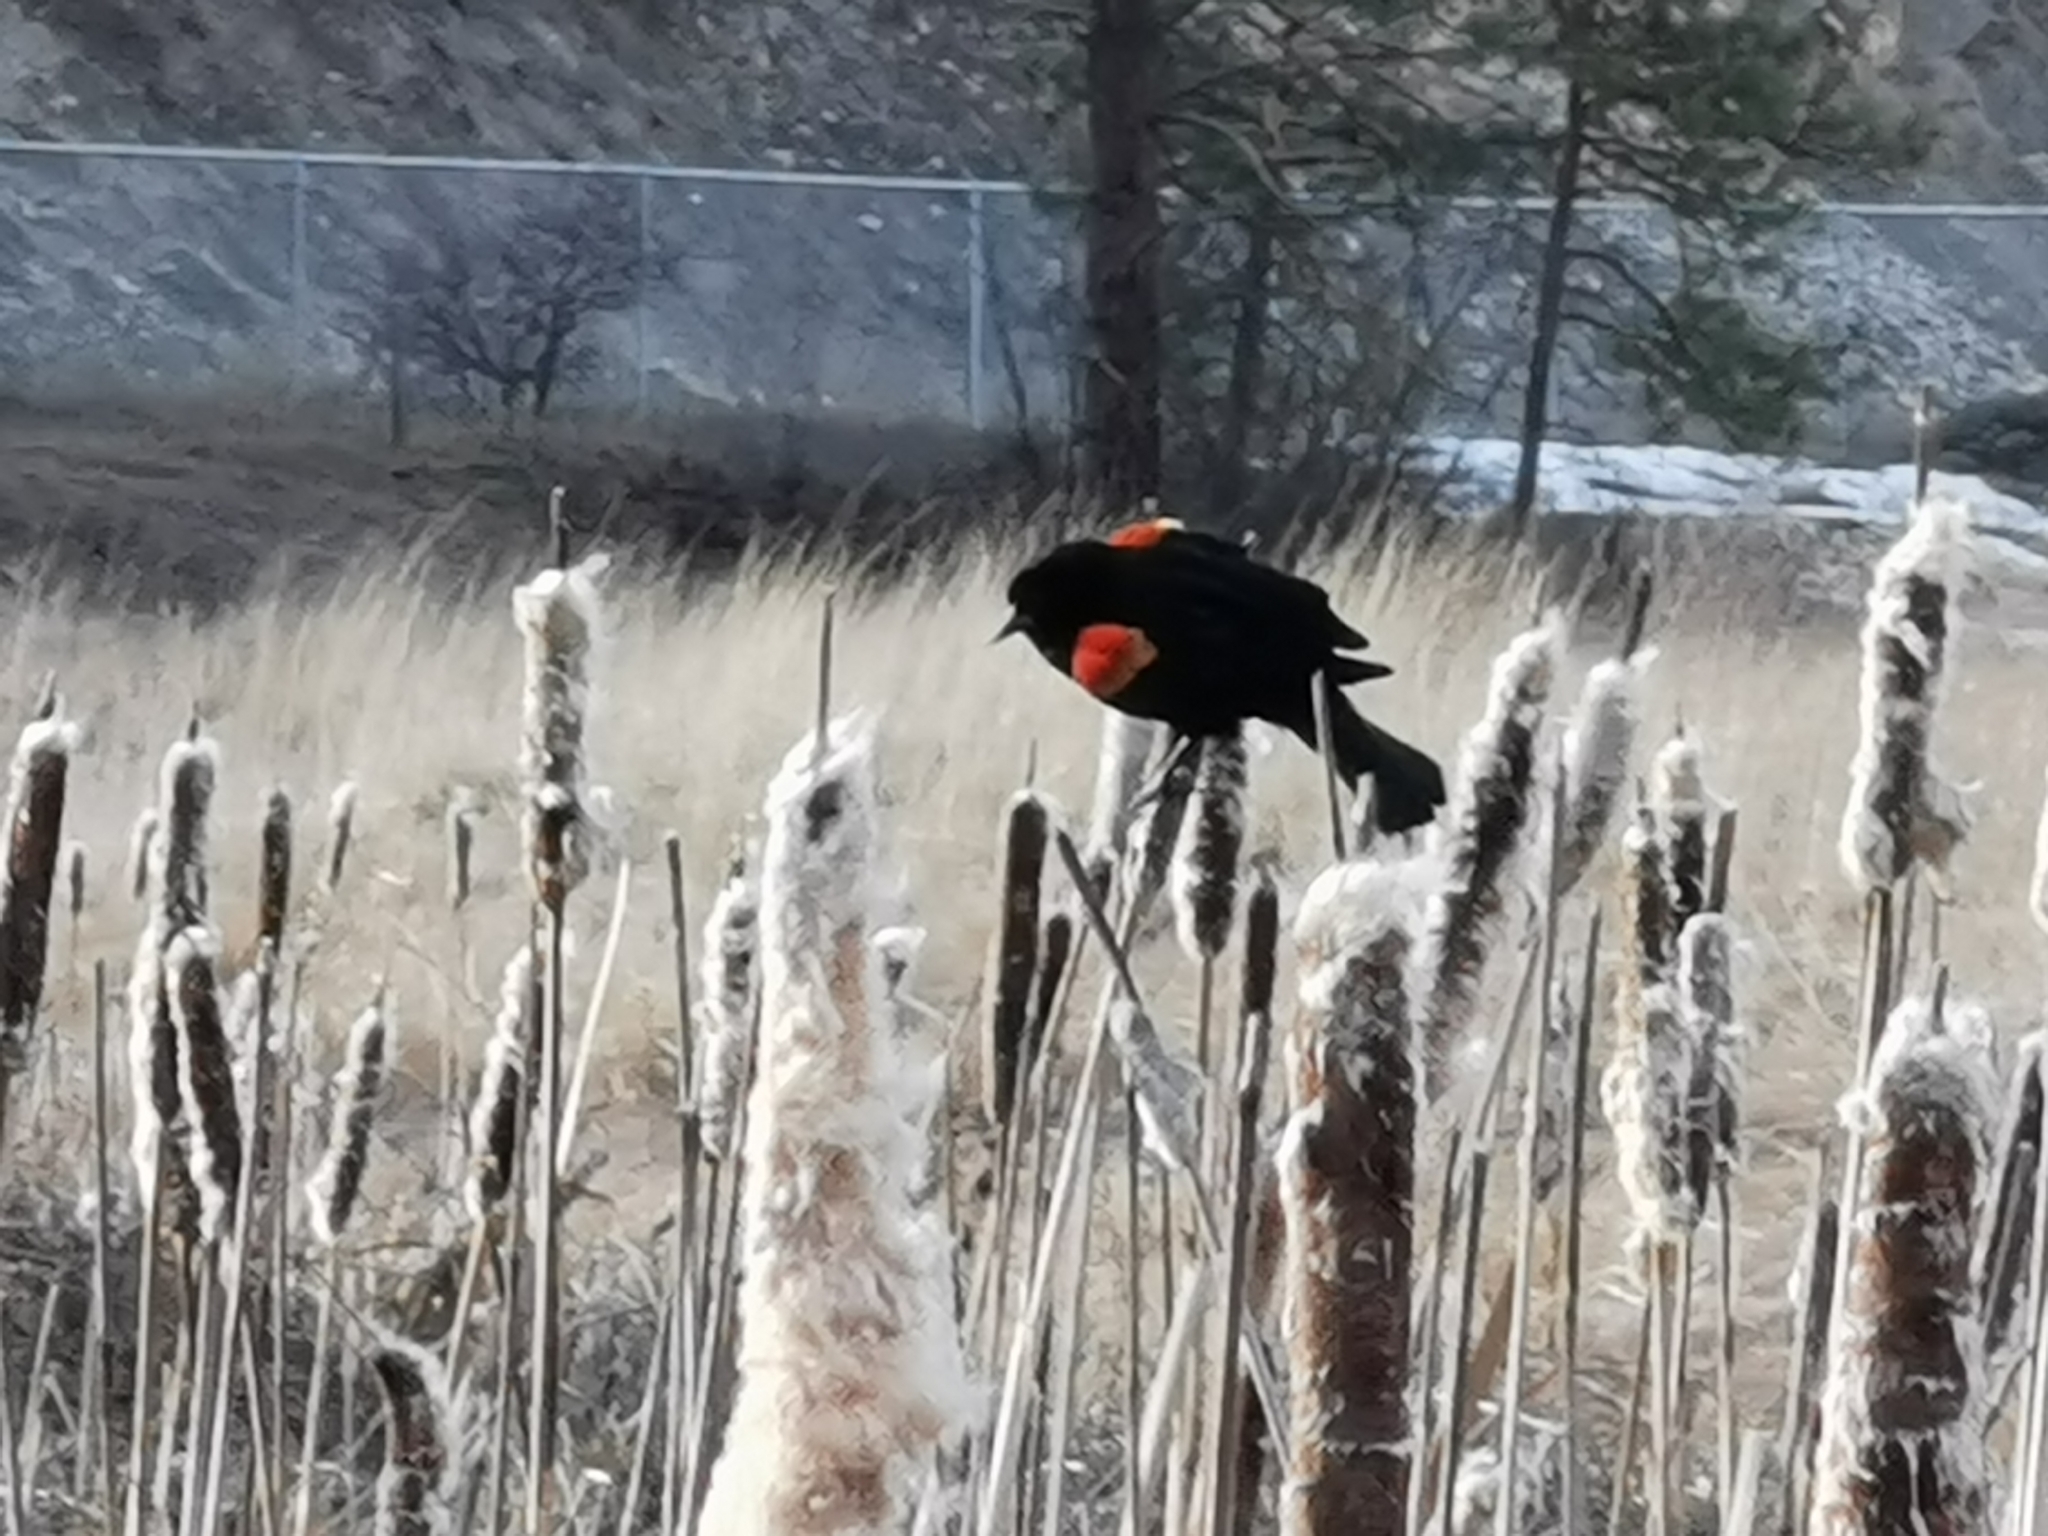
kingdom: Animalia
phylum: Chordata
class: Aves
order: Passeriformes
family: Icteridae
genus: Agelaius
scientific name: Agelaius phoeniceus
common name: Red-winged blackbird
